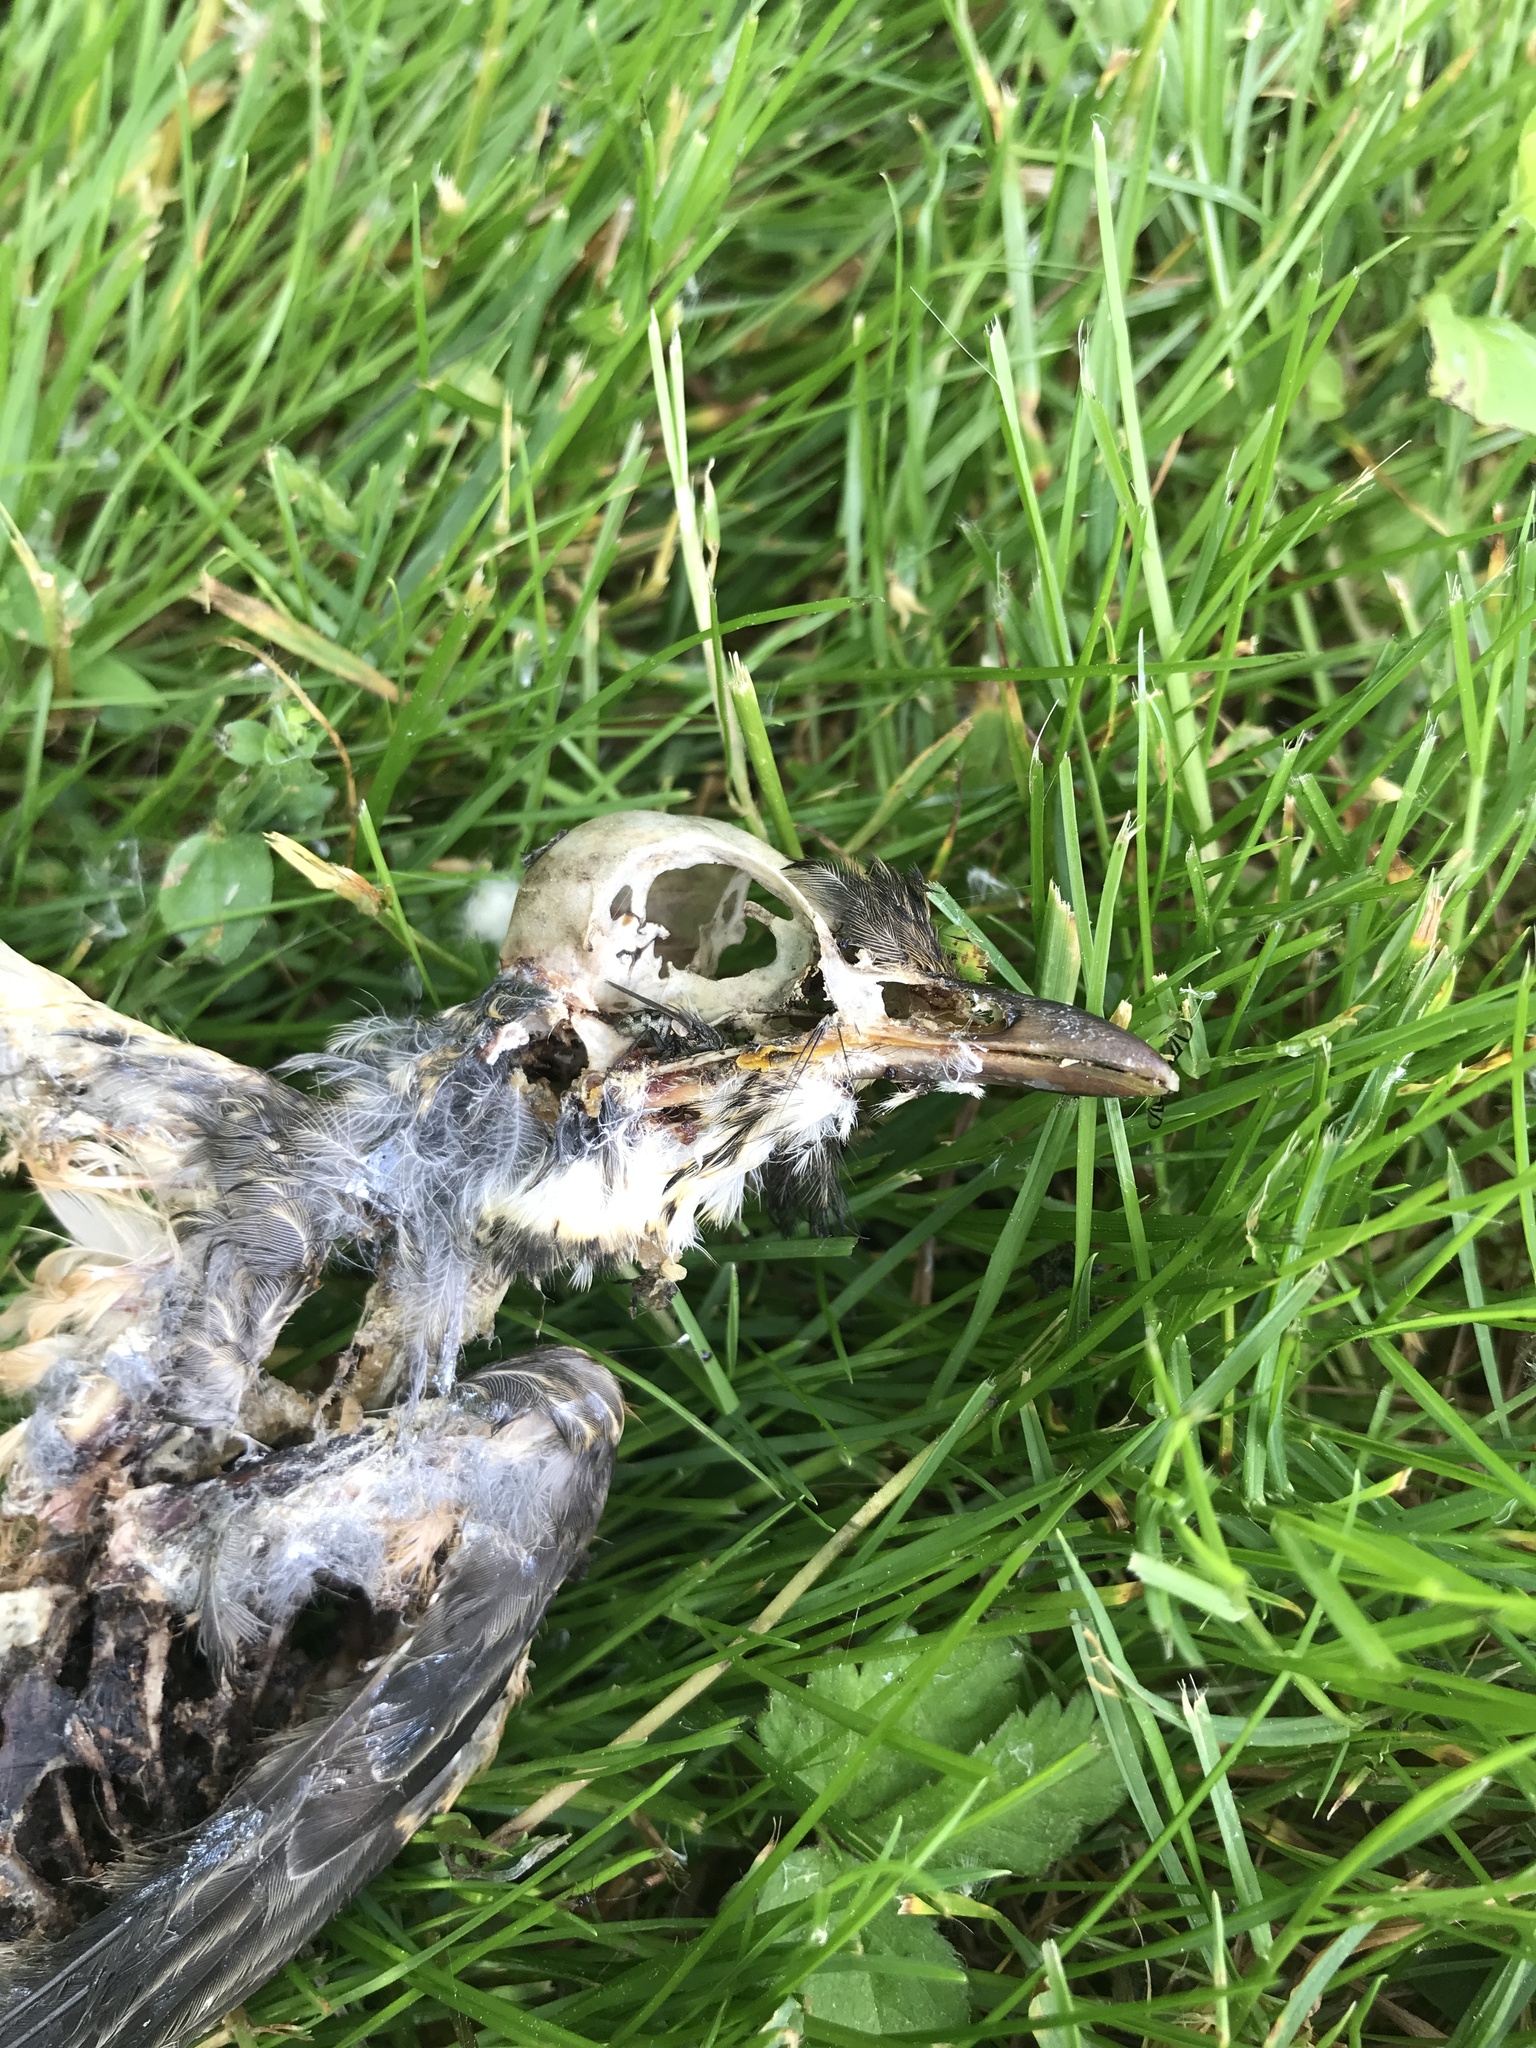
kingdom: Animalia
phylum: Chordata
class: Aves
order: Passeriformes
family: Turdidae
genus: Turdus
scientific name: Turdus migratorius
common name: American robin
